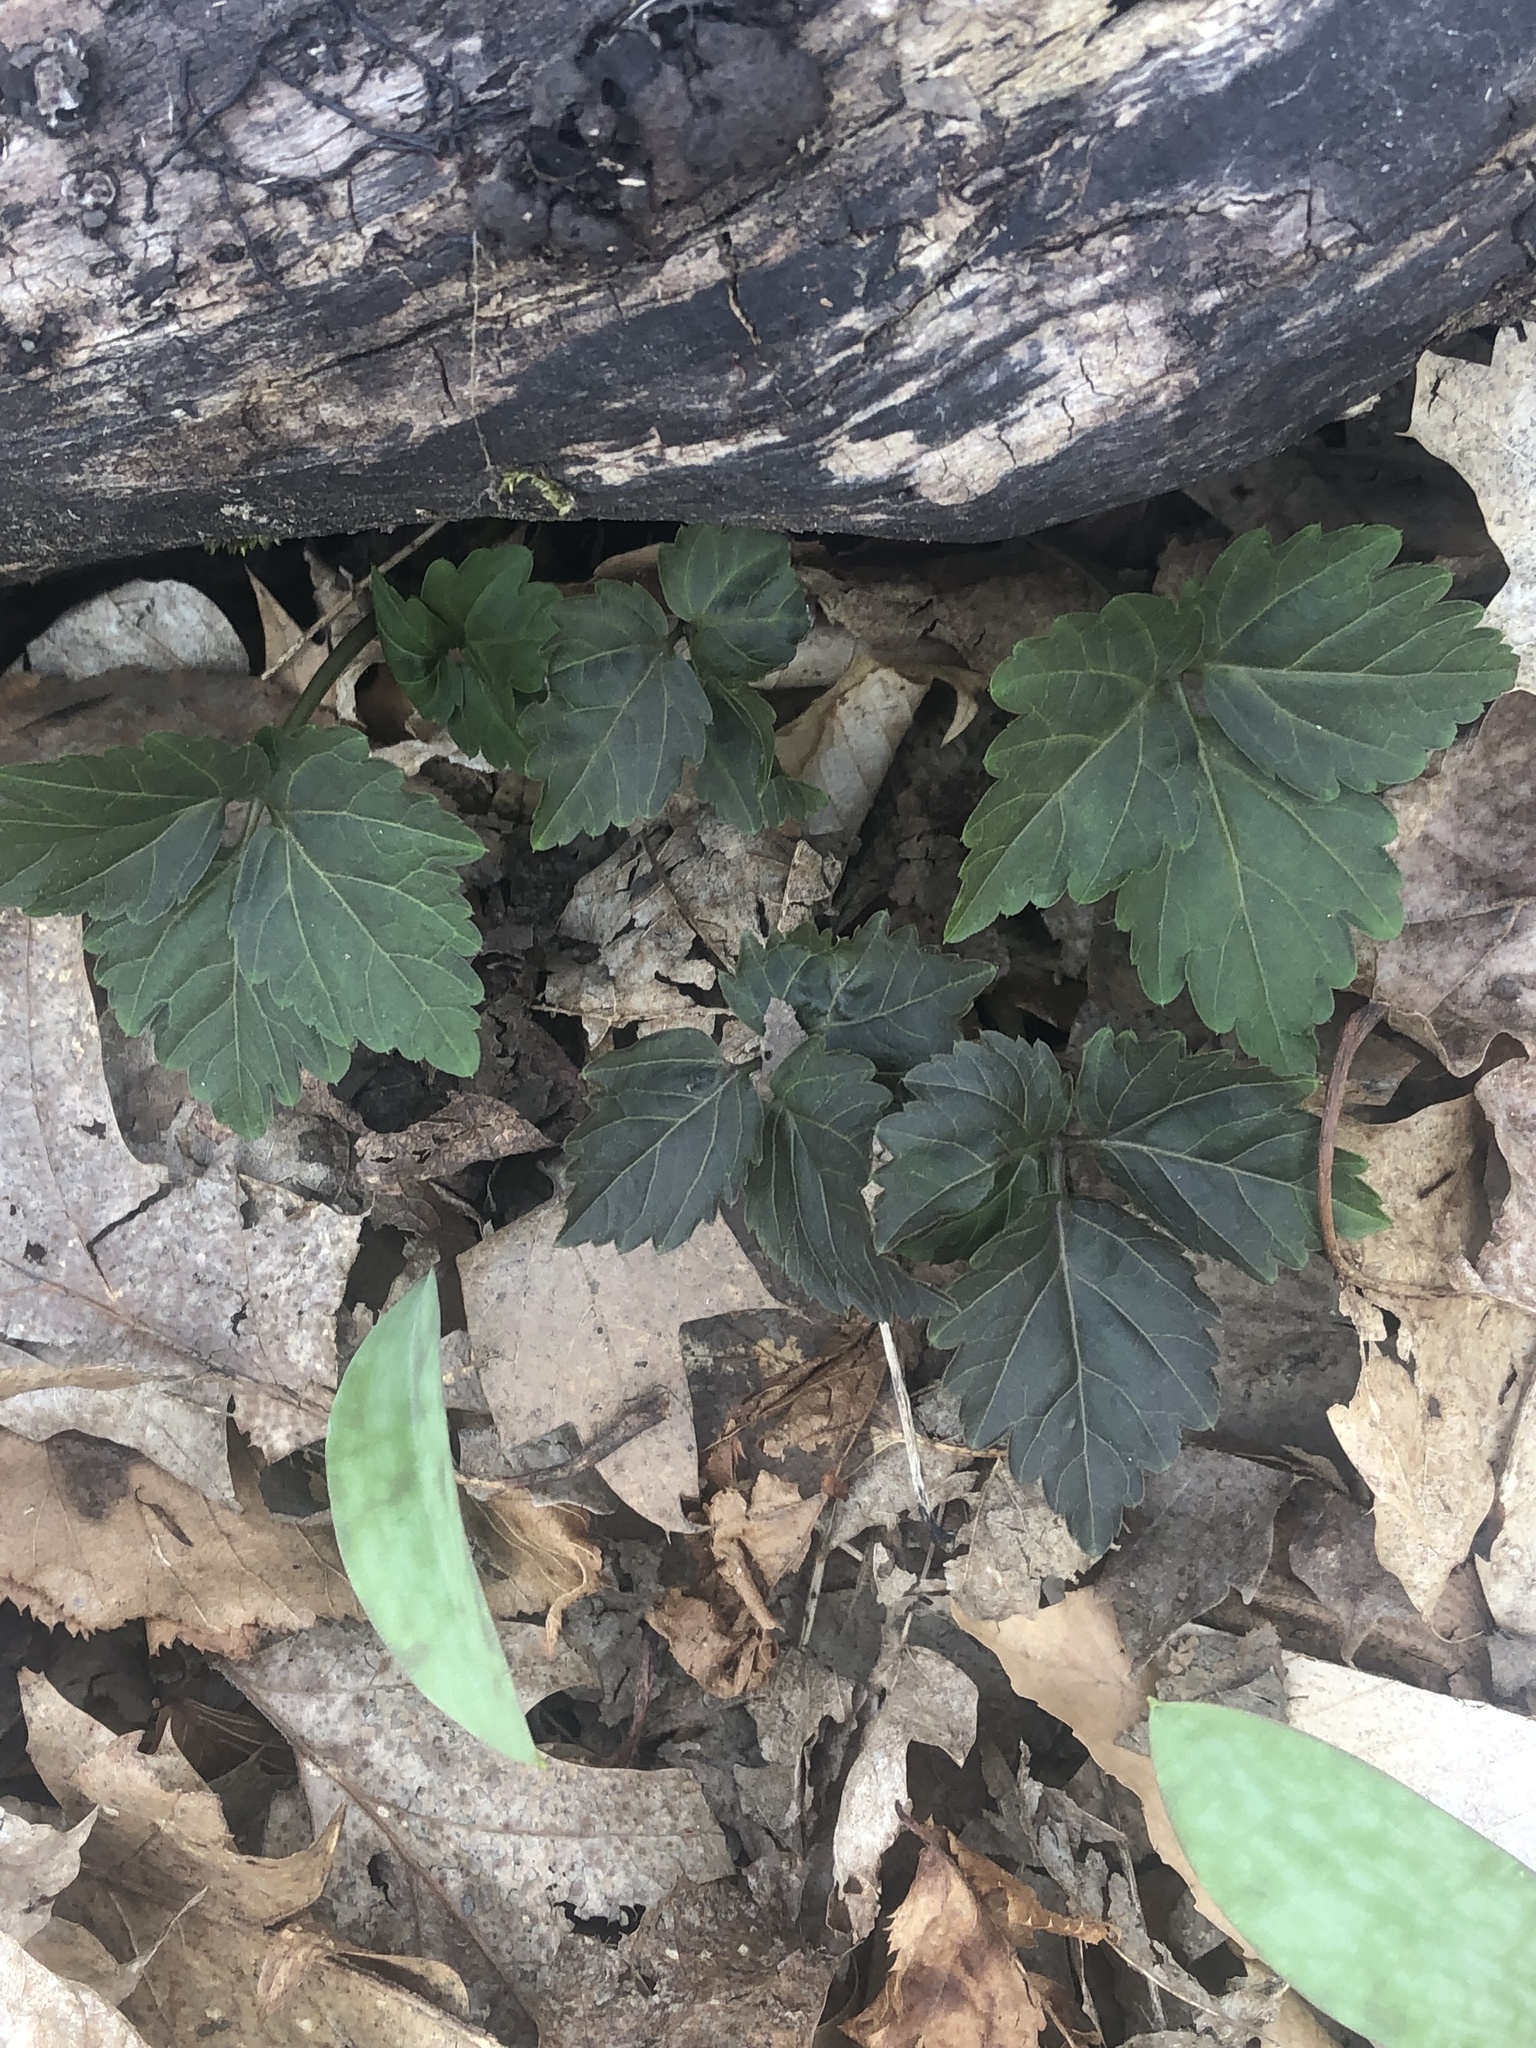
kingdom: Plantae
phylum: Tracheophyta
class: Magnoliopsida
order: Brassicales
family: Brassicaceae
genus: Cardamine
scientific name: Cardamine diphylla
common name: Broad-leaved toothwort
